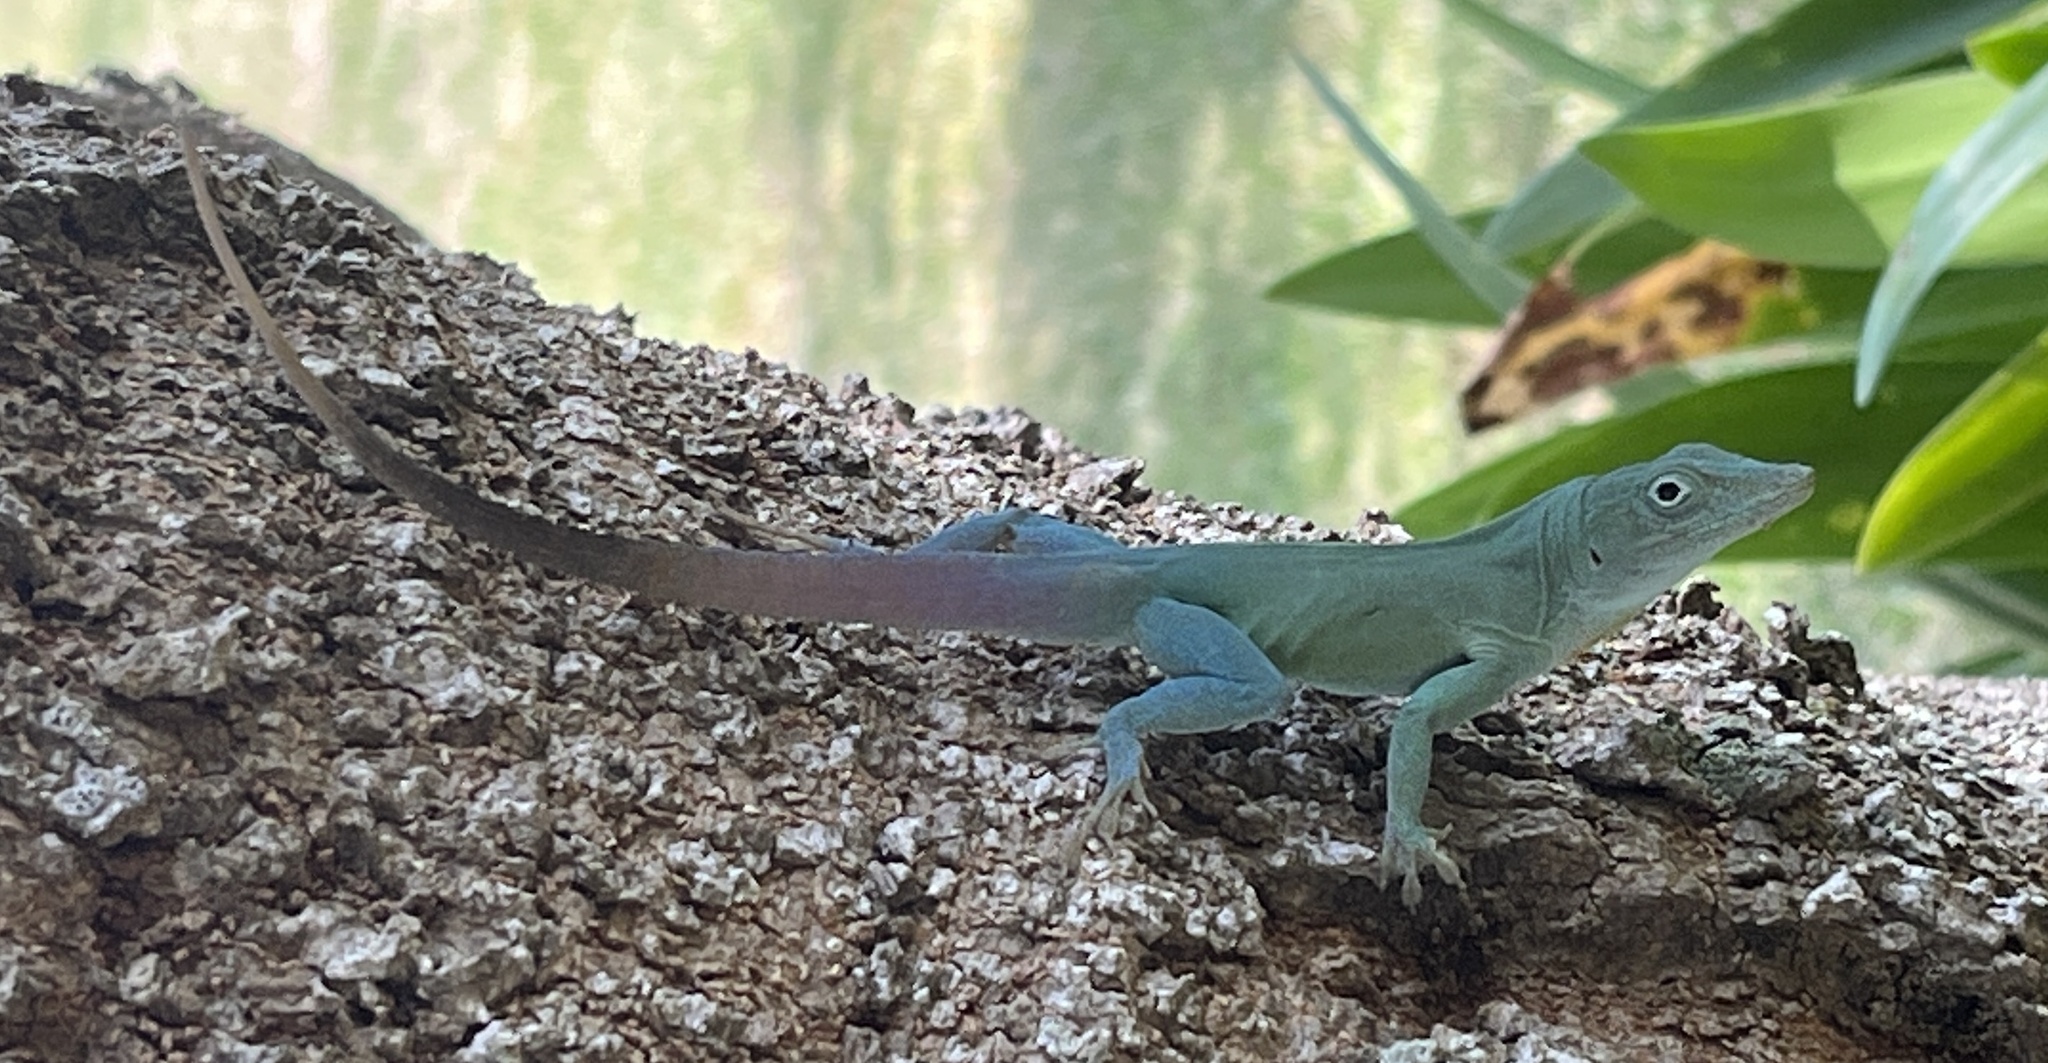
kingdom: Animalia
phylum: Chordata
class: Squamata
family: Dactyloidae
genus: Anolis
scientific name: Anolis grahami
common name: Graham's anole
